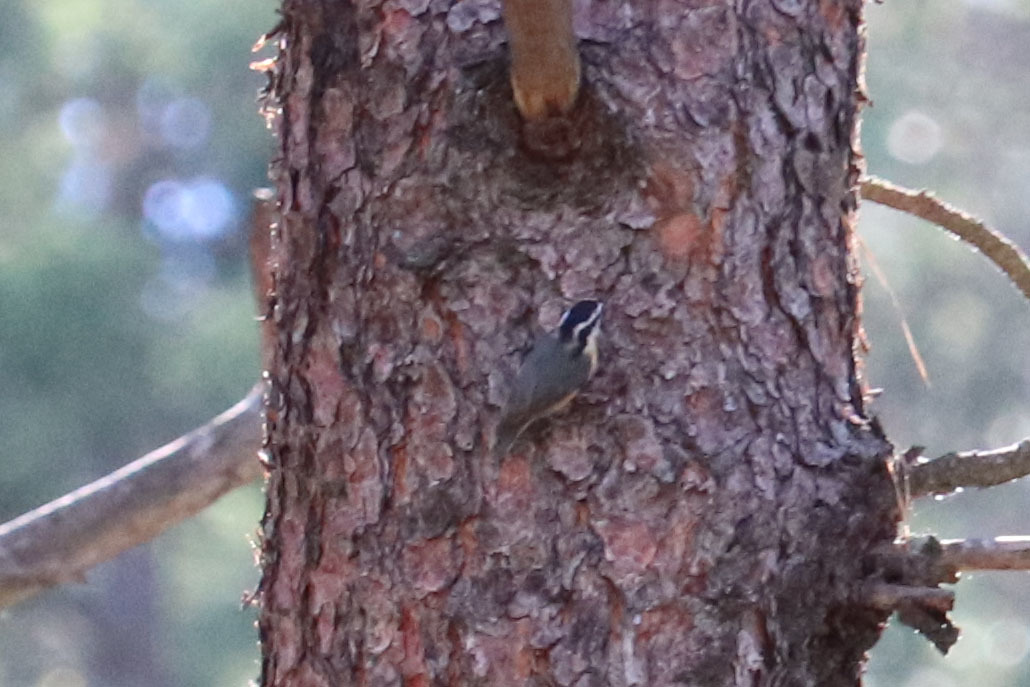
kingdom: Animalia
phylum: Chordata
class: Aves
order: Passeriformes
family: Sittidae
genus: Sitta
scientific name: Sitta canadensis
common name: Red-breasted nuthatch
